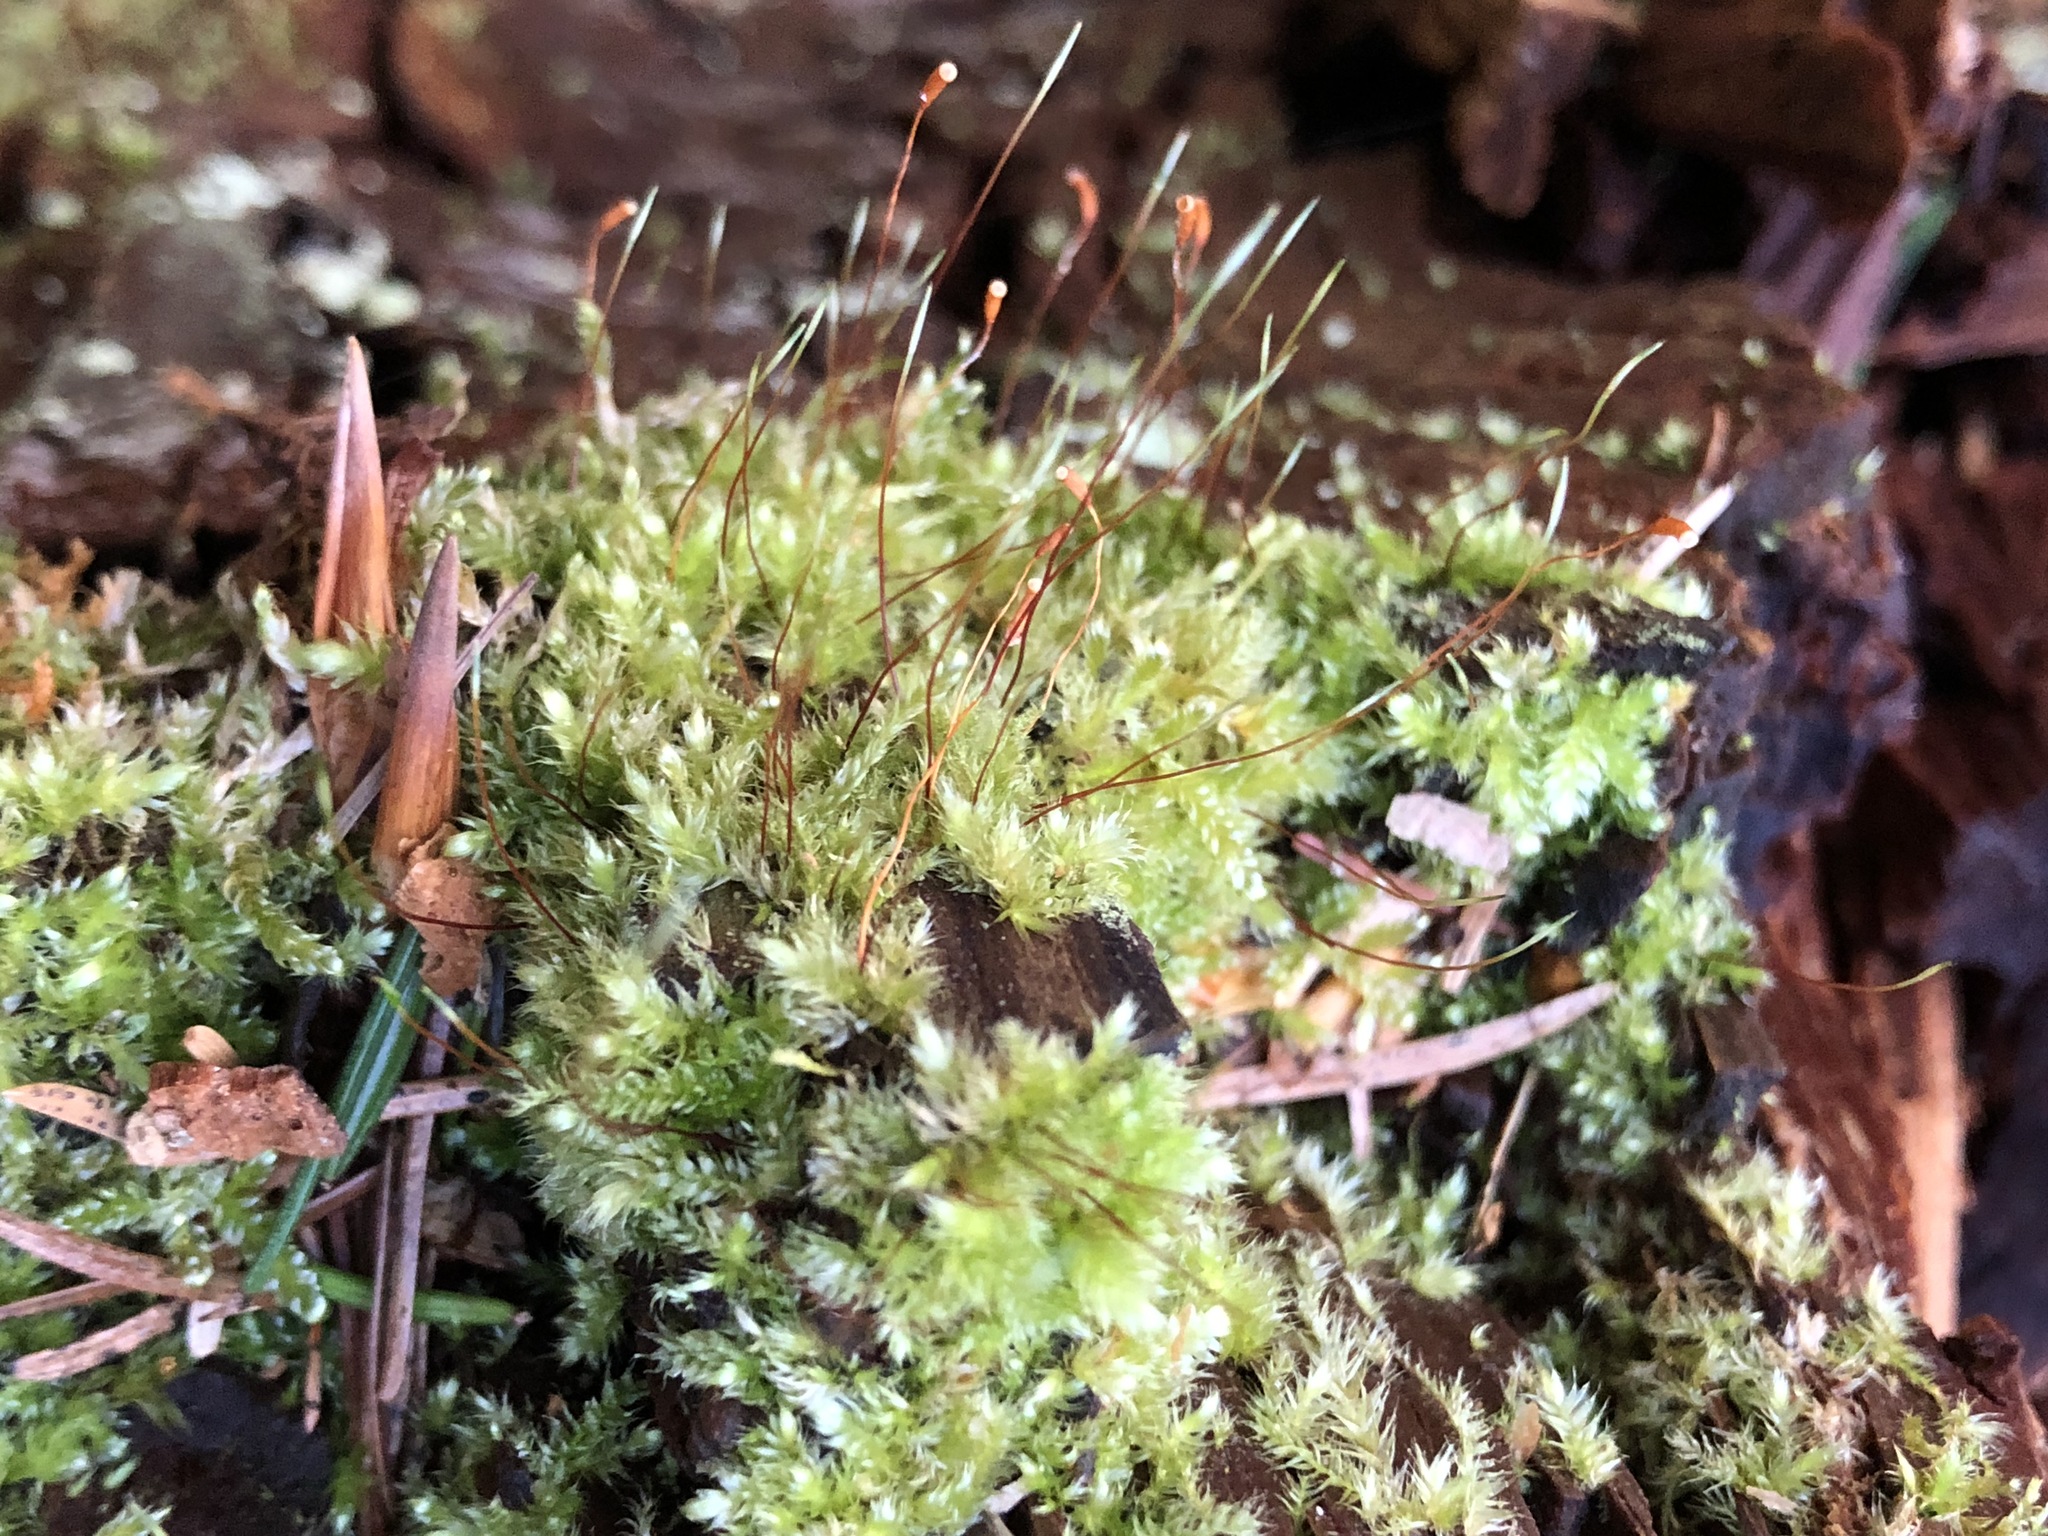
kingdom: Plantae
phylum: Bryophyta
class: Bryopsida
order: Hypnales
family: Plagiotheciaceae
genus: Herzogiella
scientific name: Herzogiella seligeri
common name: Silesian feather-moss
